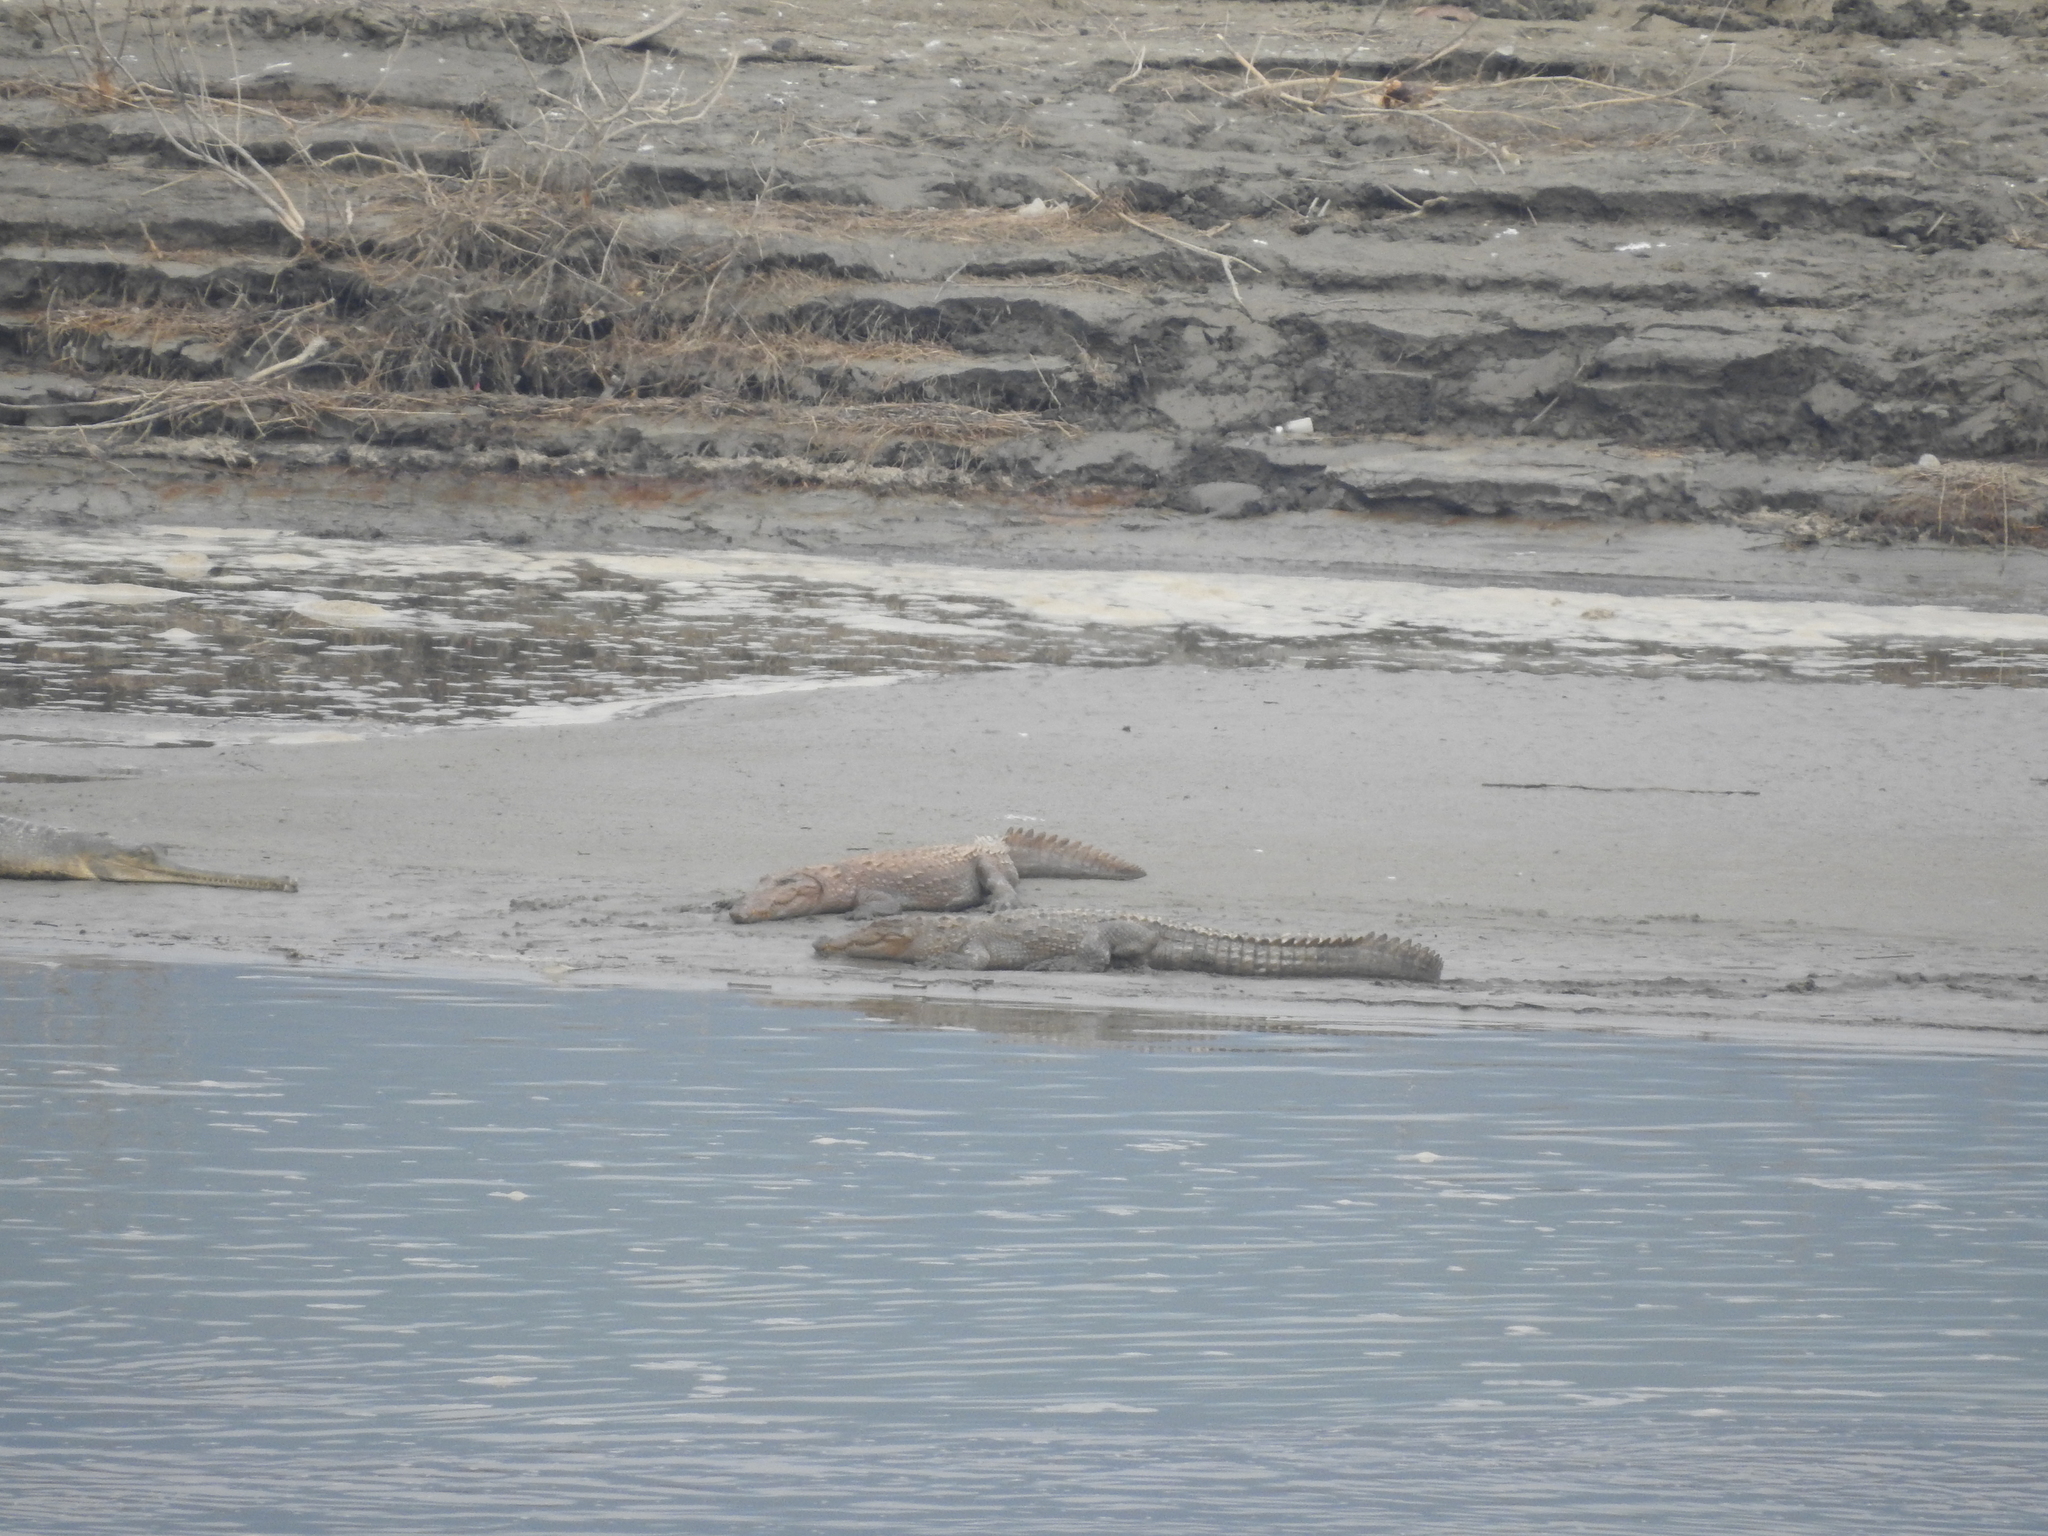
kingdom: Animalia
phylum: Chordata
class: Crocodylia
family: Crocodylidae
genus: Crocodylus
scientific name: Crocodylus palustris
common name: Mugger crocodile
